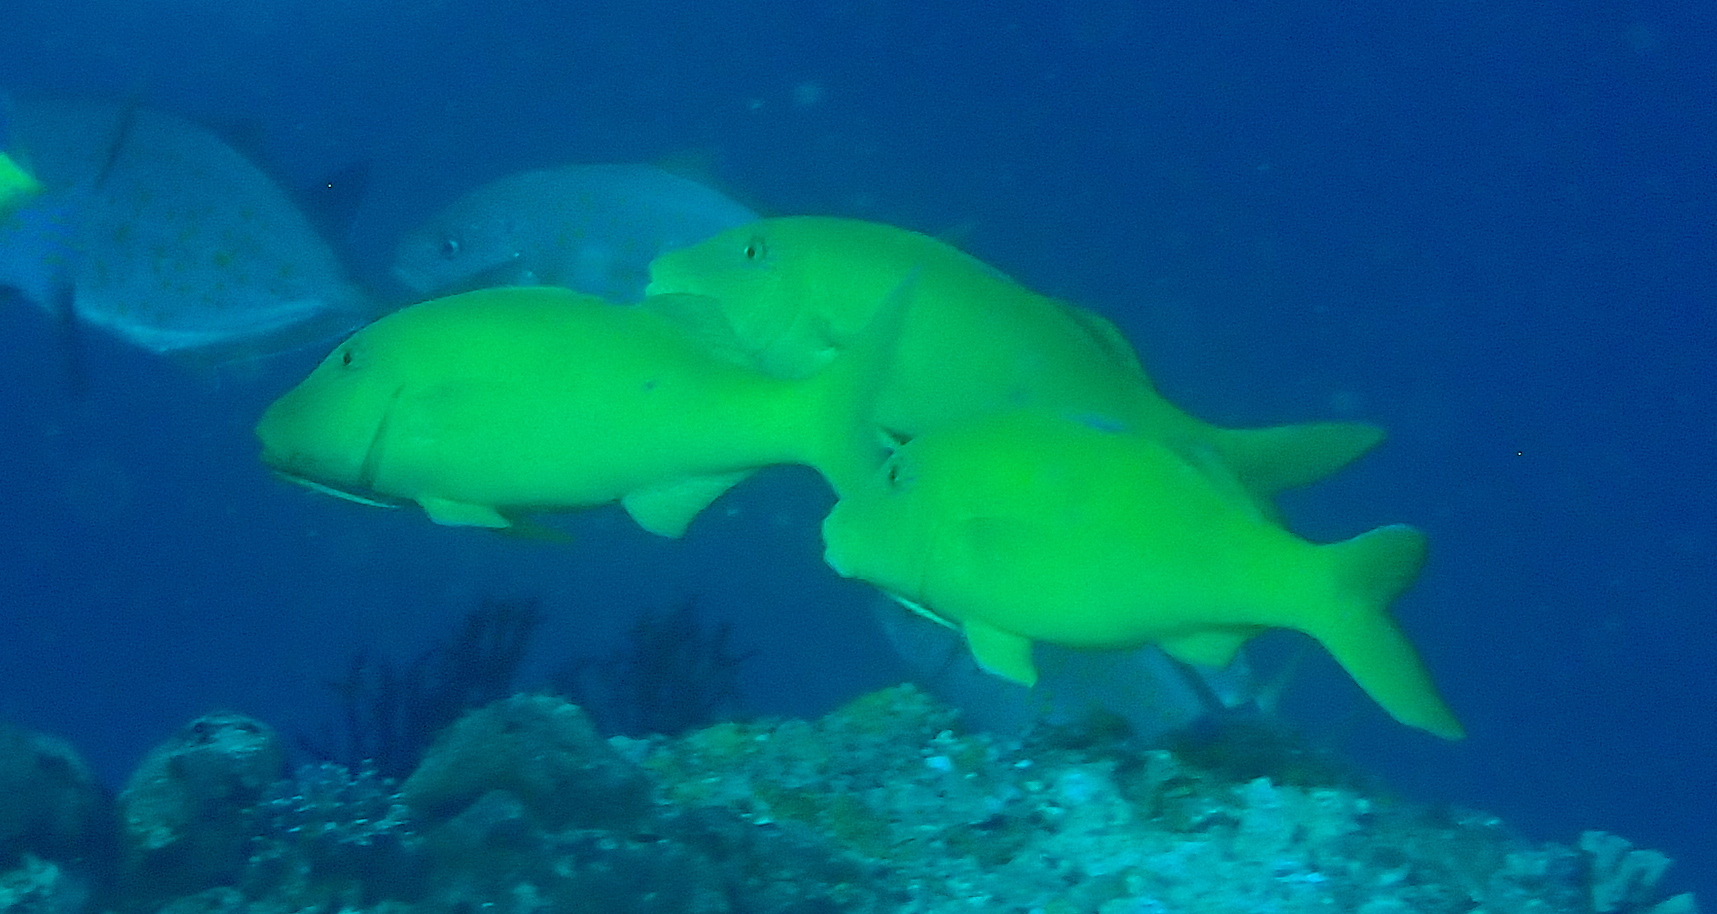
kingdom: Animalia
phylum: Chordata
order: Perciformes
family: Mullidae
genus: Parupeneus
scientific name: Parupeneus cyclostomus
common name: Goldsaddle goatfish
